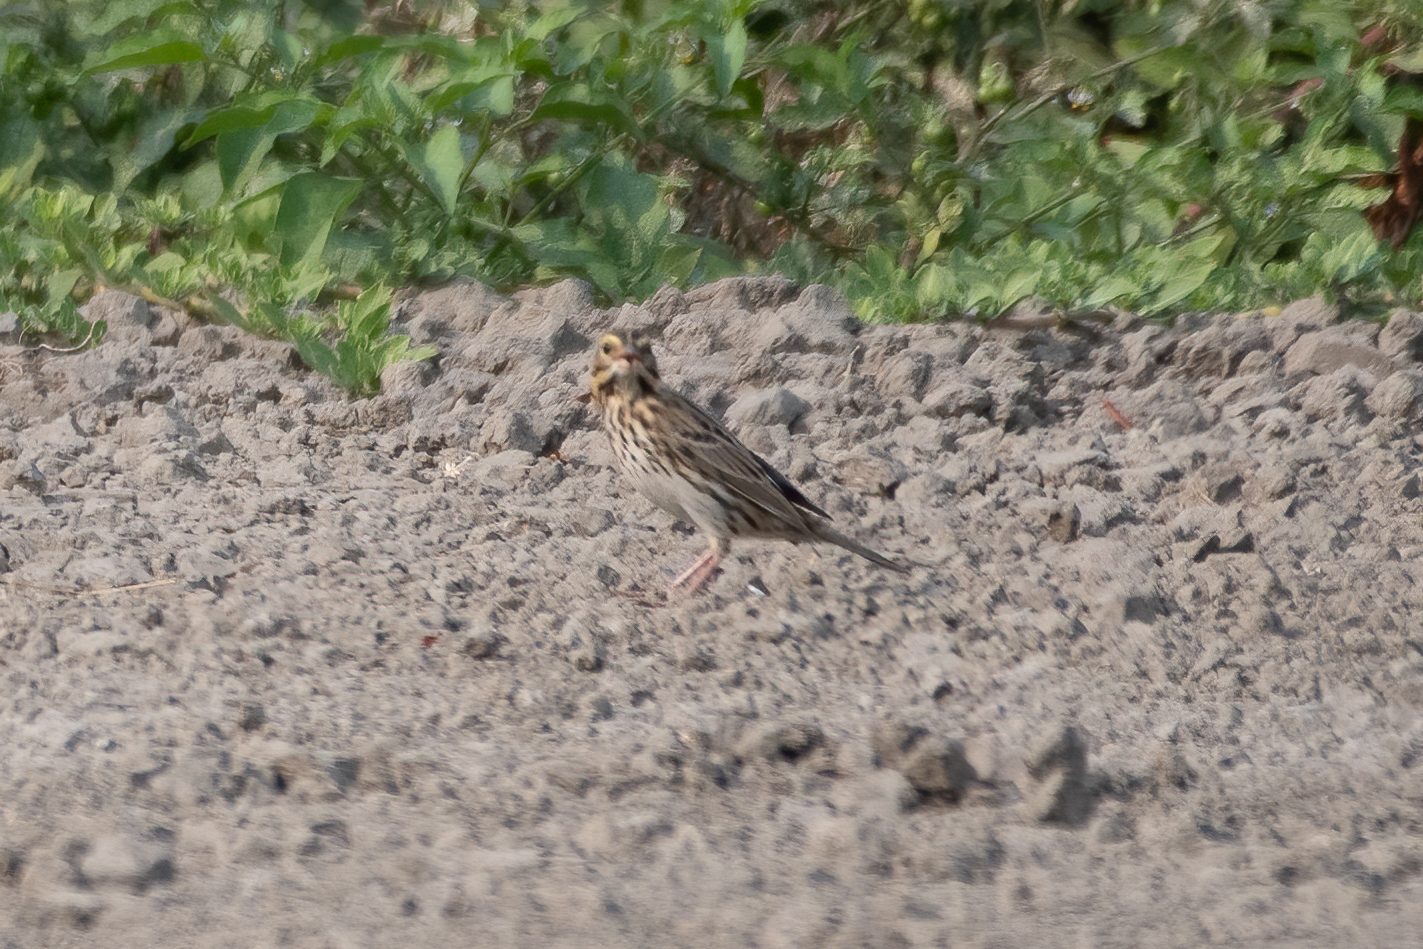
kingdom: Animalia
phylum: Chordata
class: Aves
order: Passeriformes
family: Passerellidae
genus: Passerculus
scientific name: Passerculus sandwichensis
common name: Savannah sparrow
